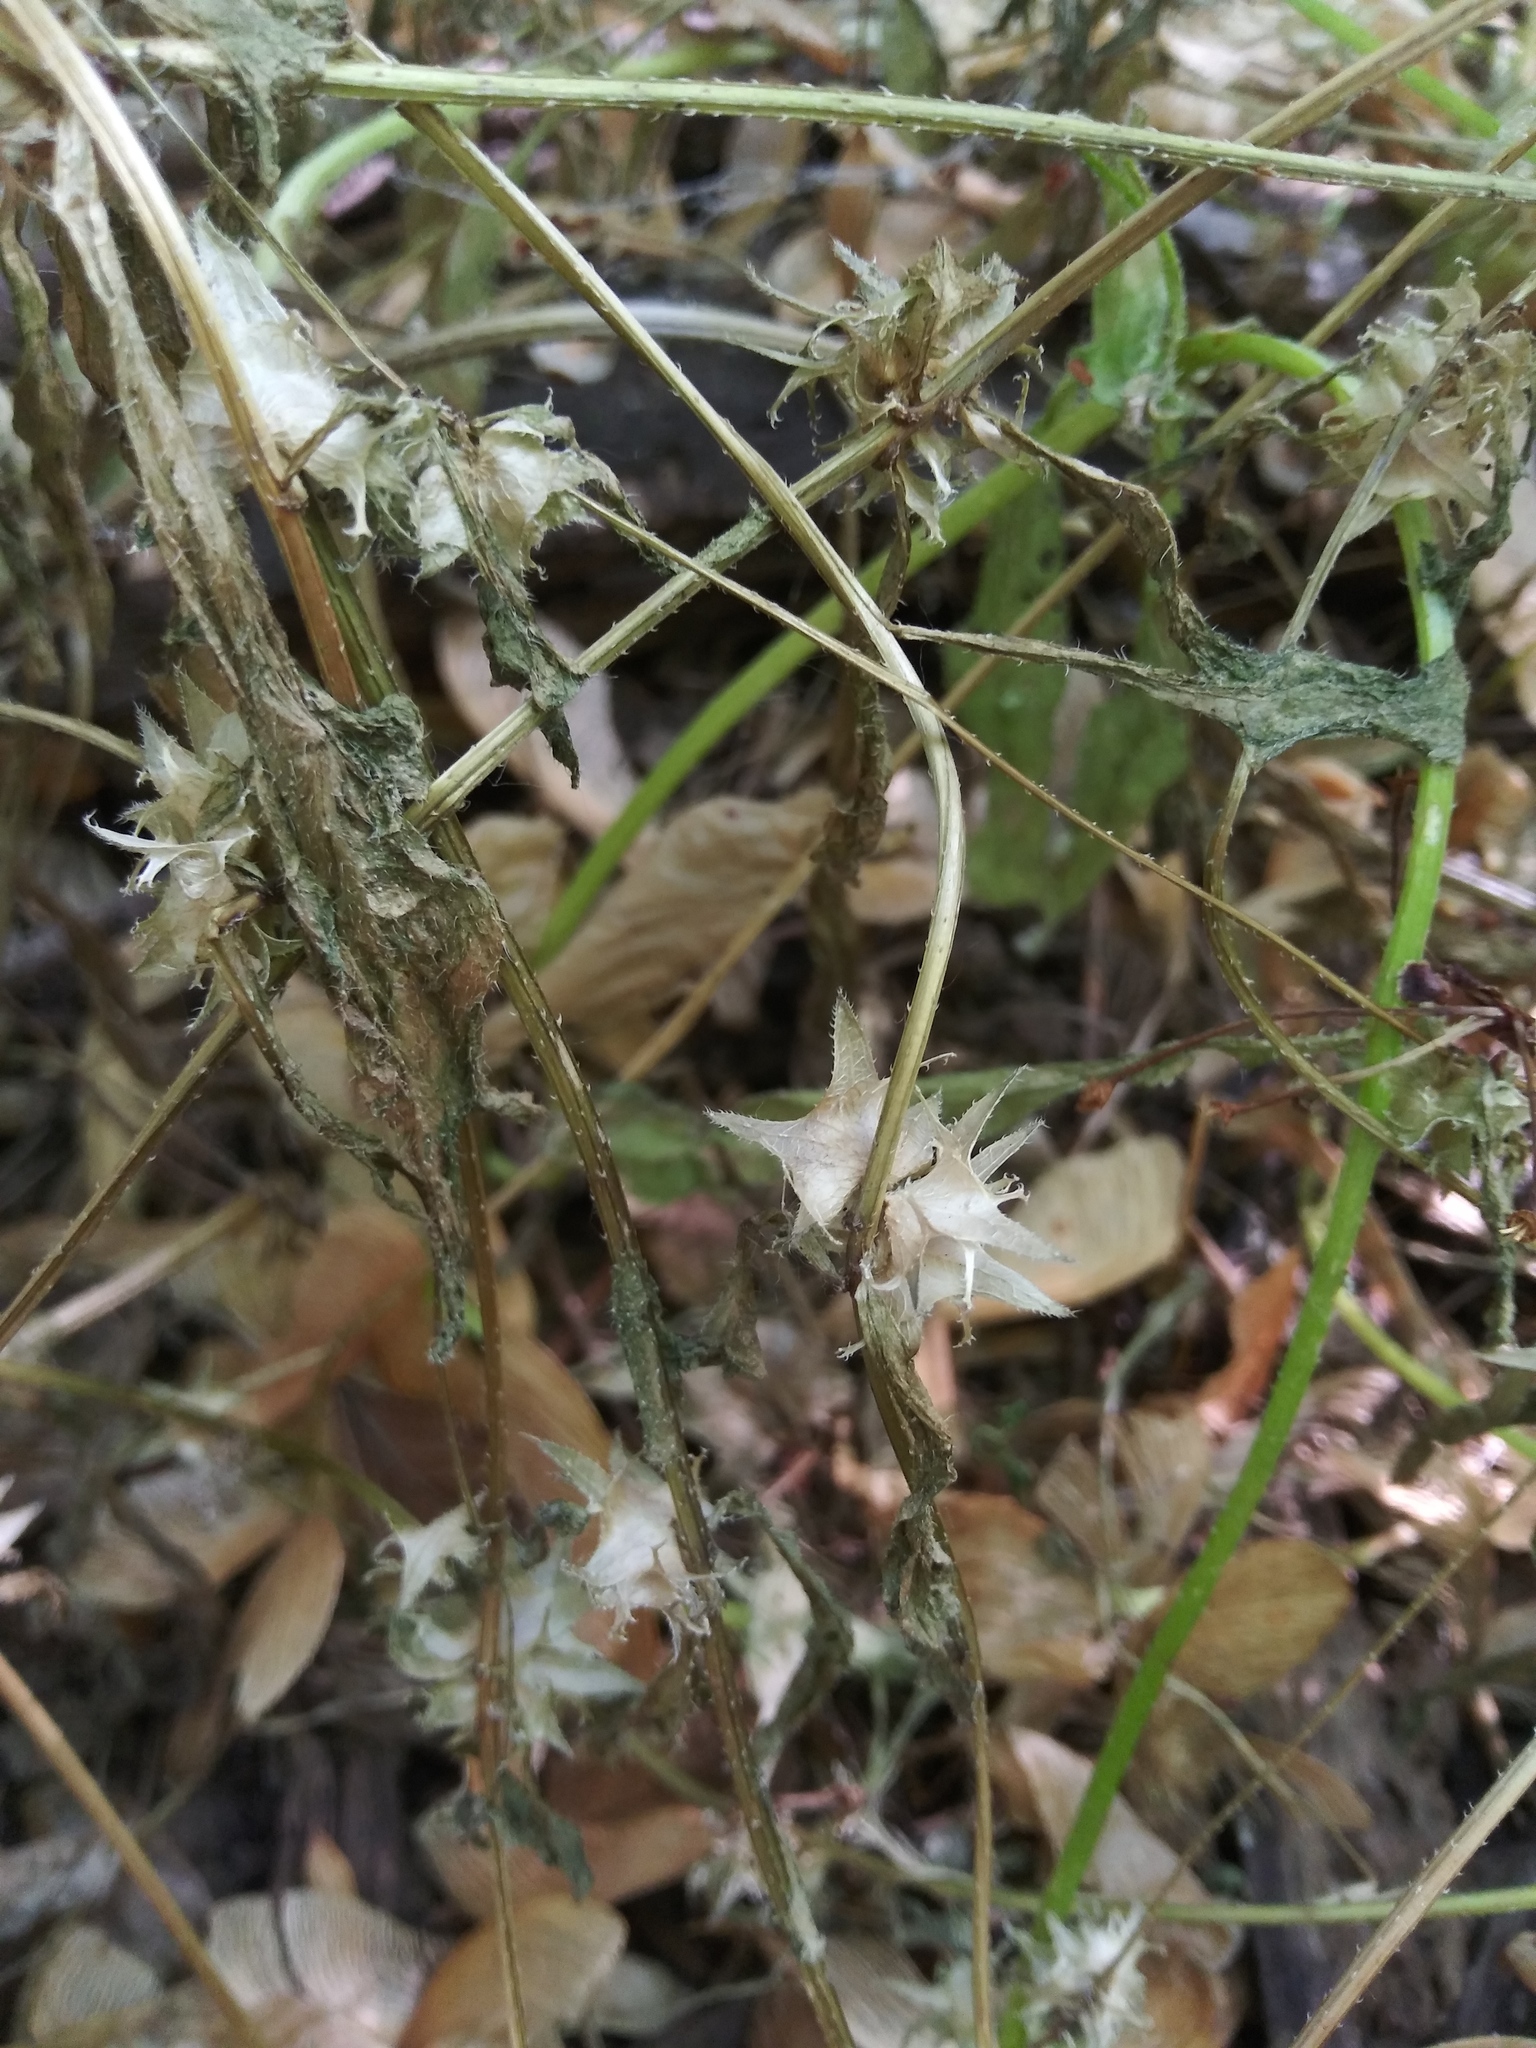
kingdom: Plantae
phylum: Tracheophyta
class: Magnoliopsida
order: Boraginales
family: Boraginaceae
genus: Asperugo
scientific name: Asperugo procumbens
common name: Madwort
